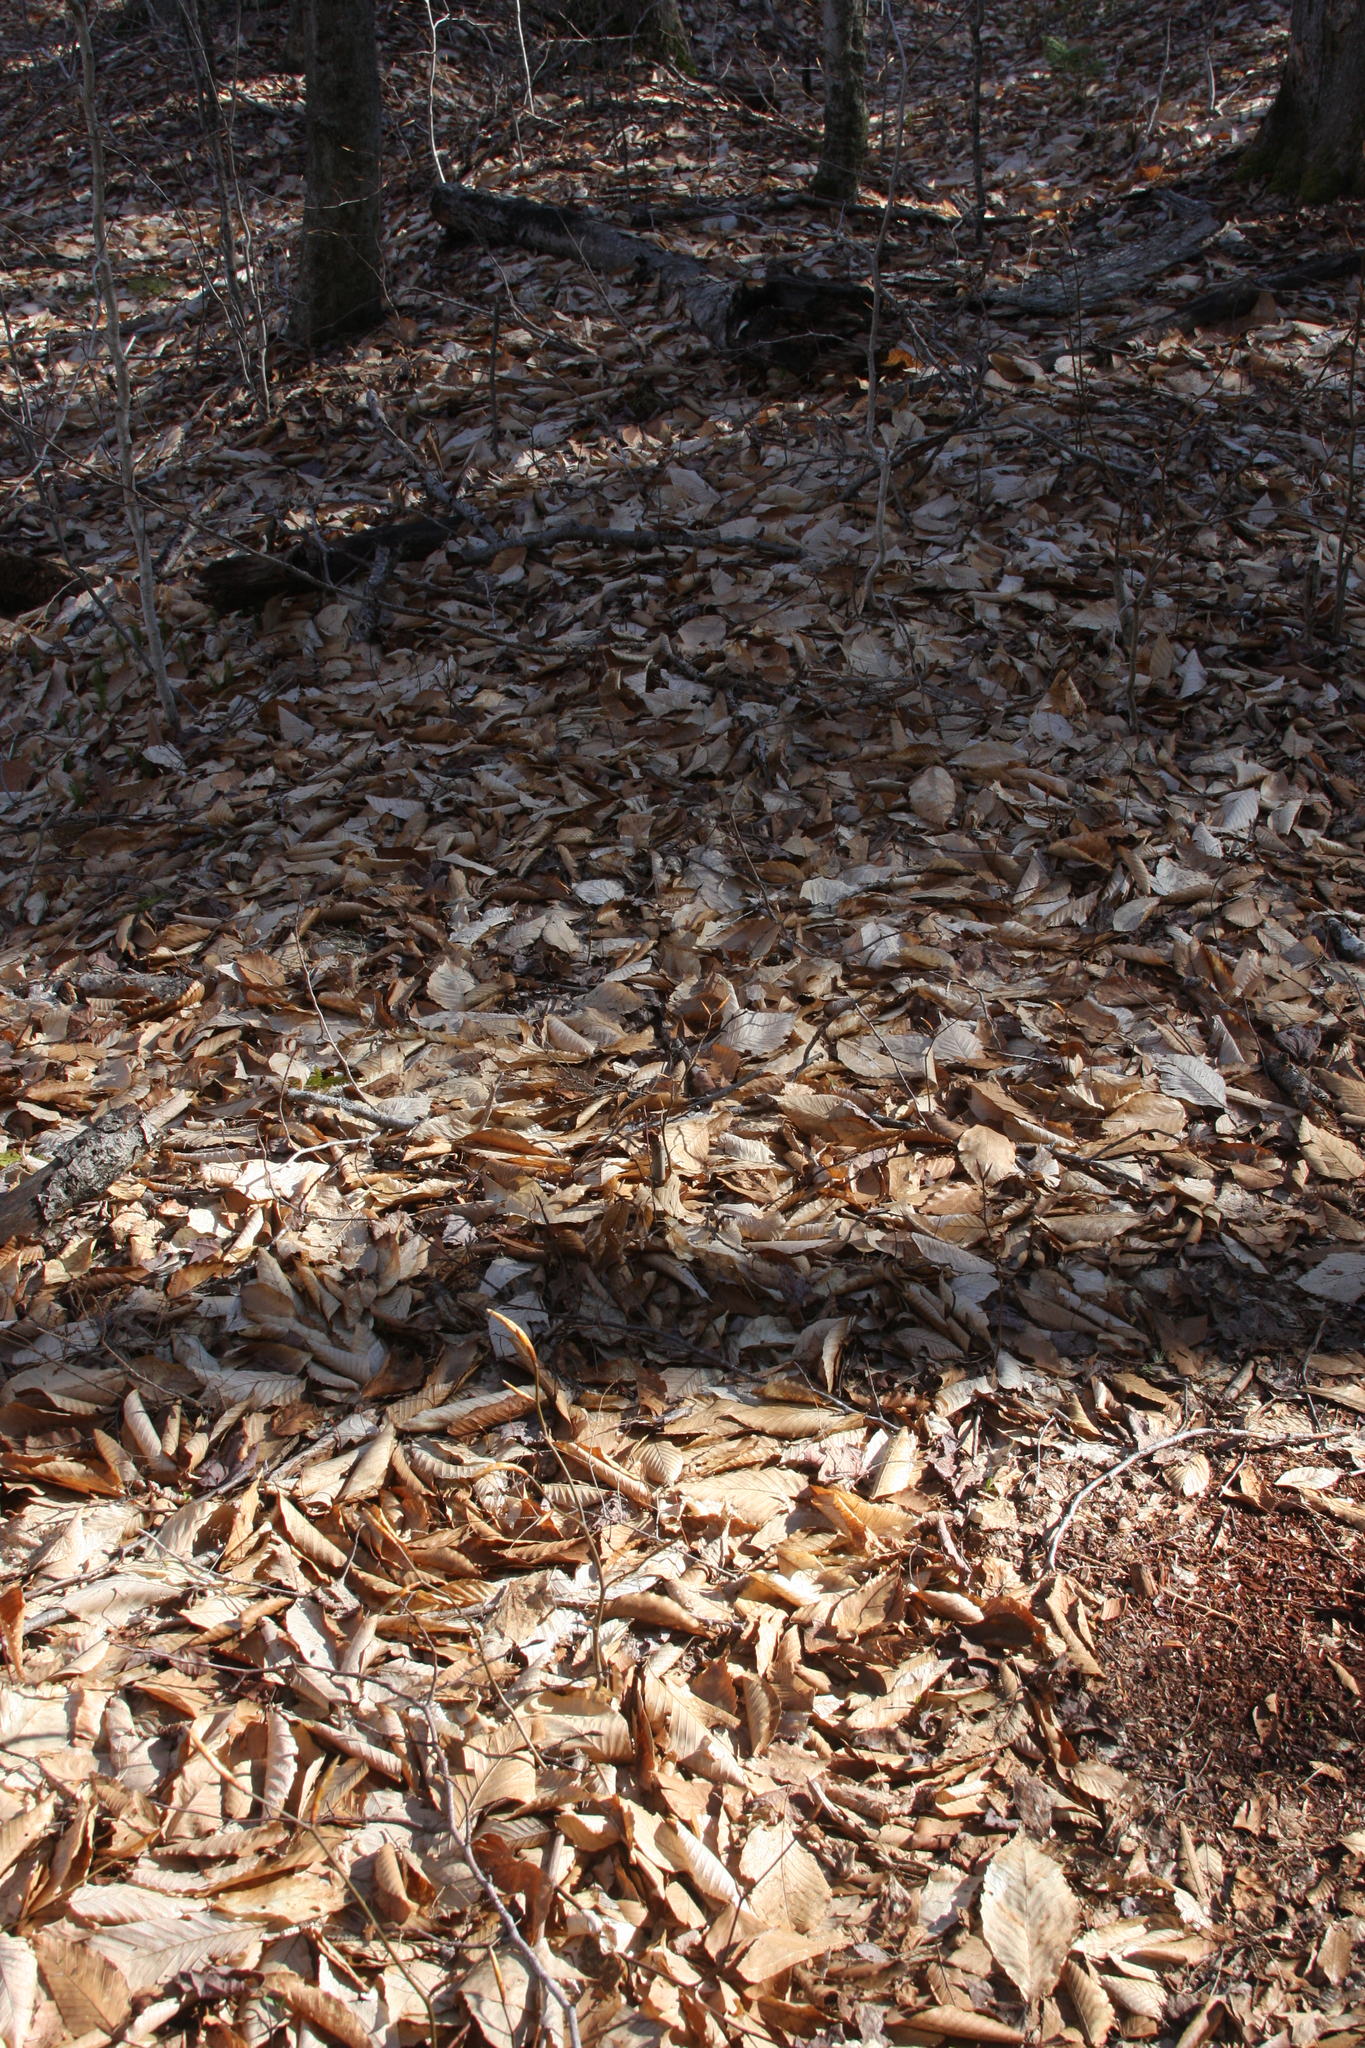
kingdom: Plantae
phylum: Tracheophyta
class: Magnoliopsida
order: Fagales
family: Fagaceae
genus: Fagus
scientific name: Fagus grandifolia
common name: American beech
